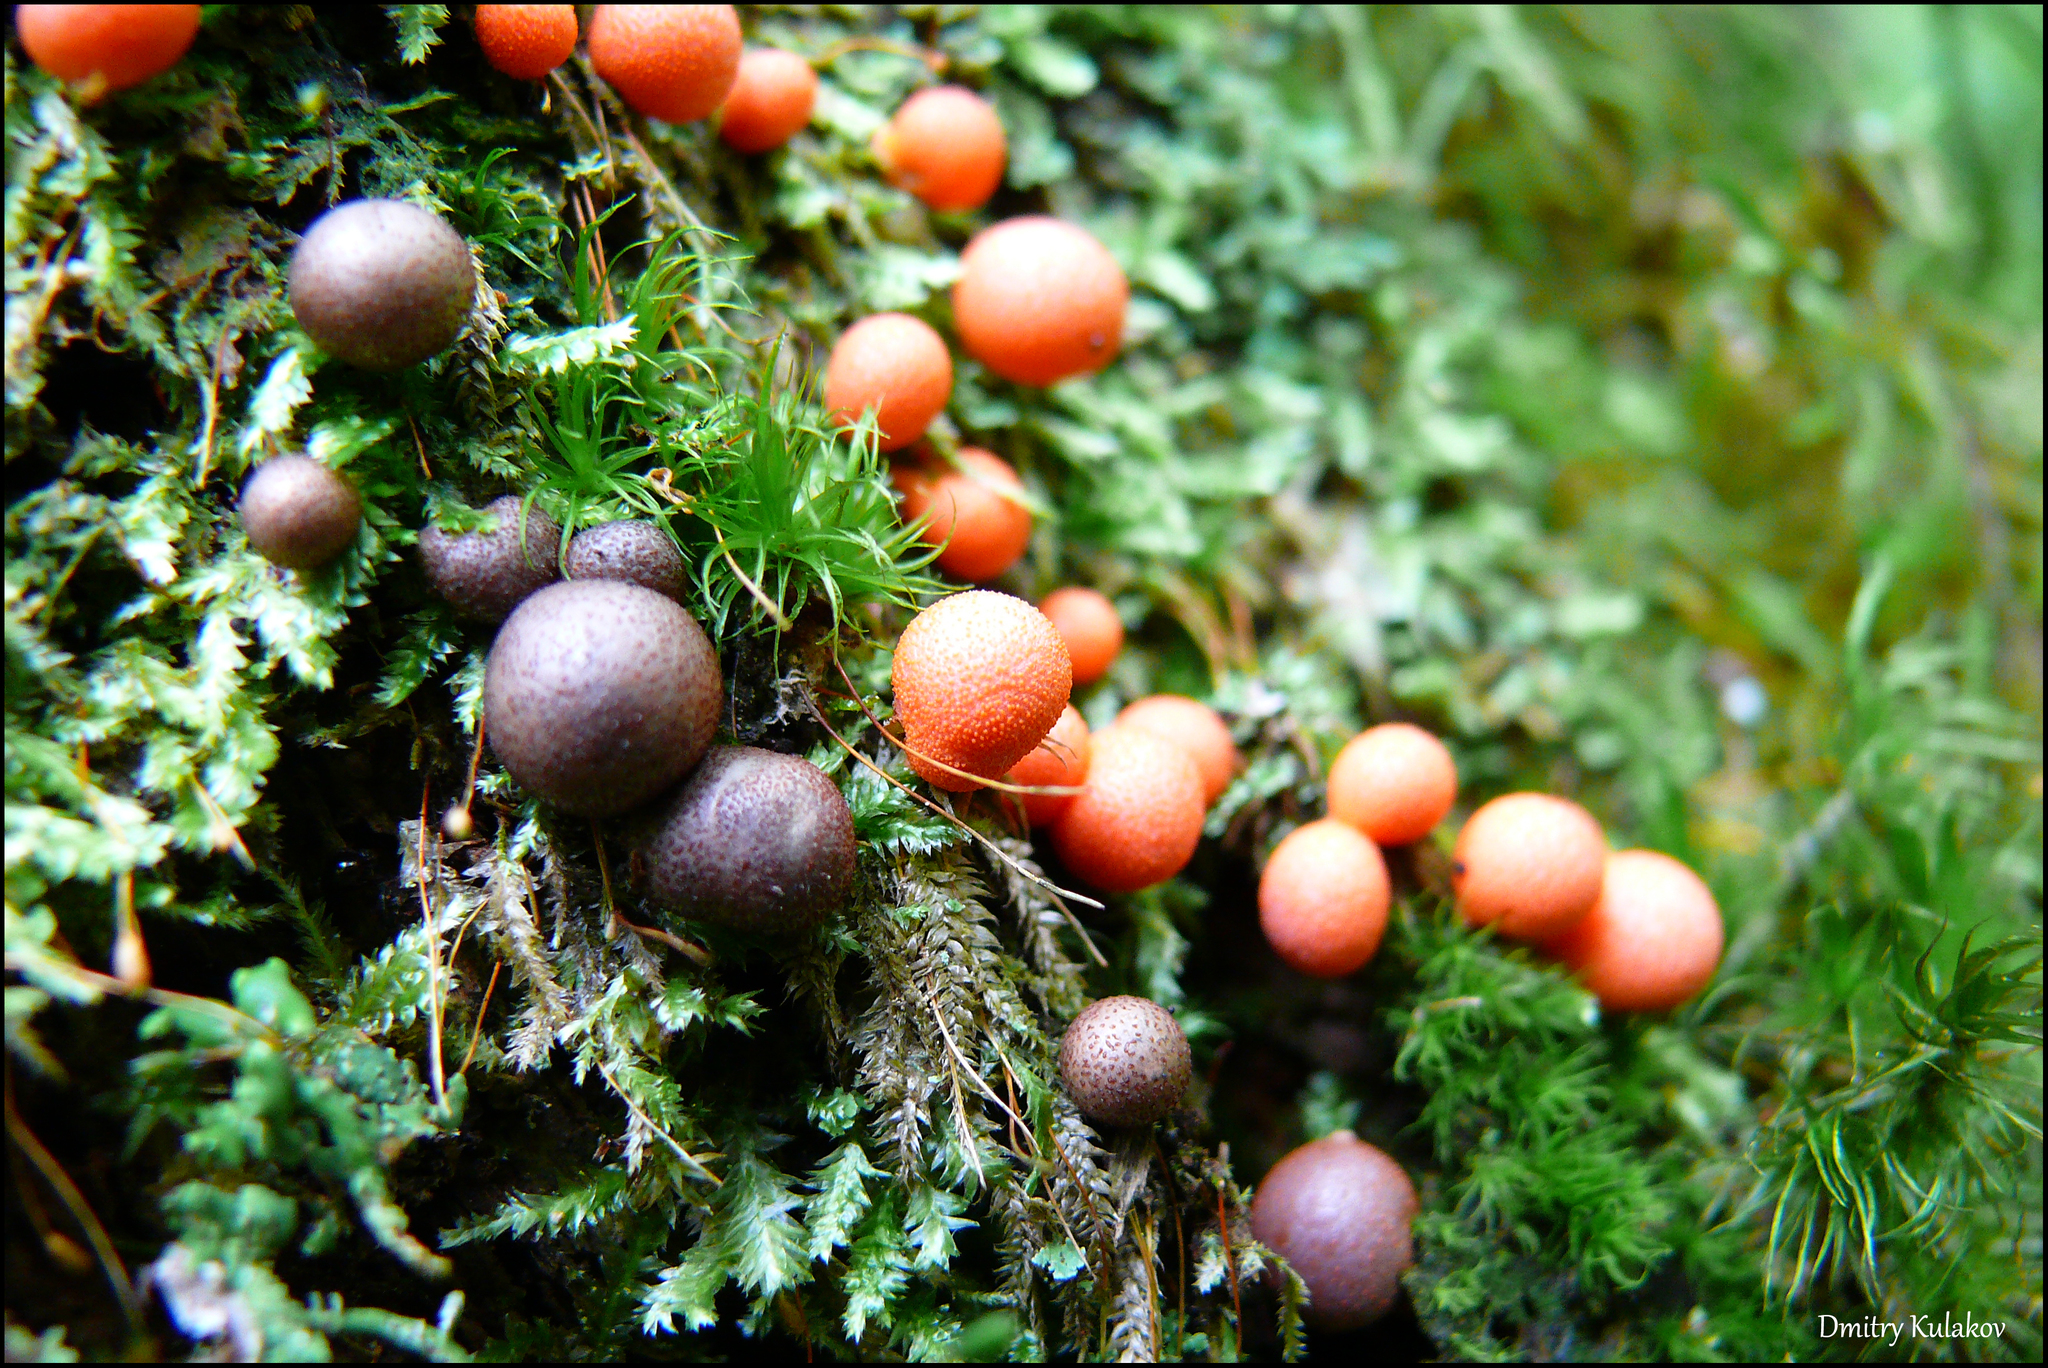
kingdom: Protozoa
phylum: Mycetozoa
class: Myxomycetes
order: Cribrariales
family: Tubiferaceae
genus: Lycogala
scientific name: Lycogala epidendrum
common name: Wolf's milk
